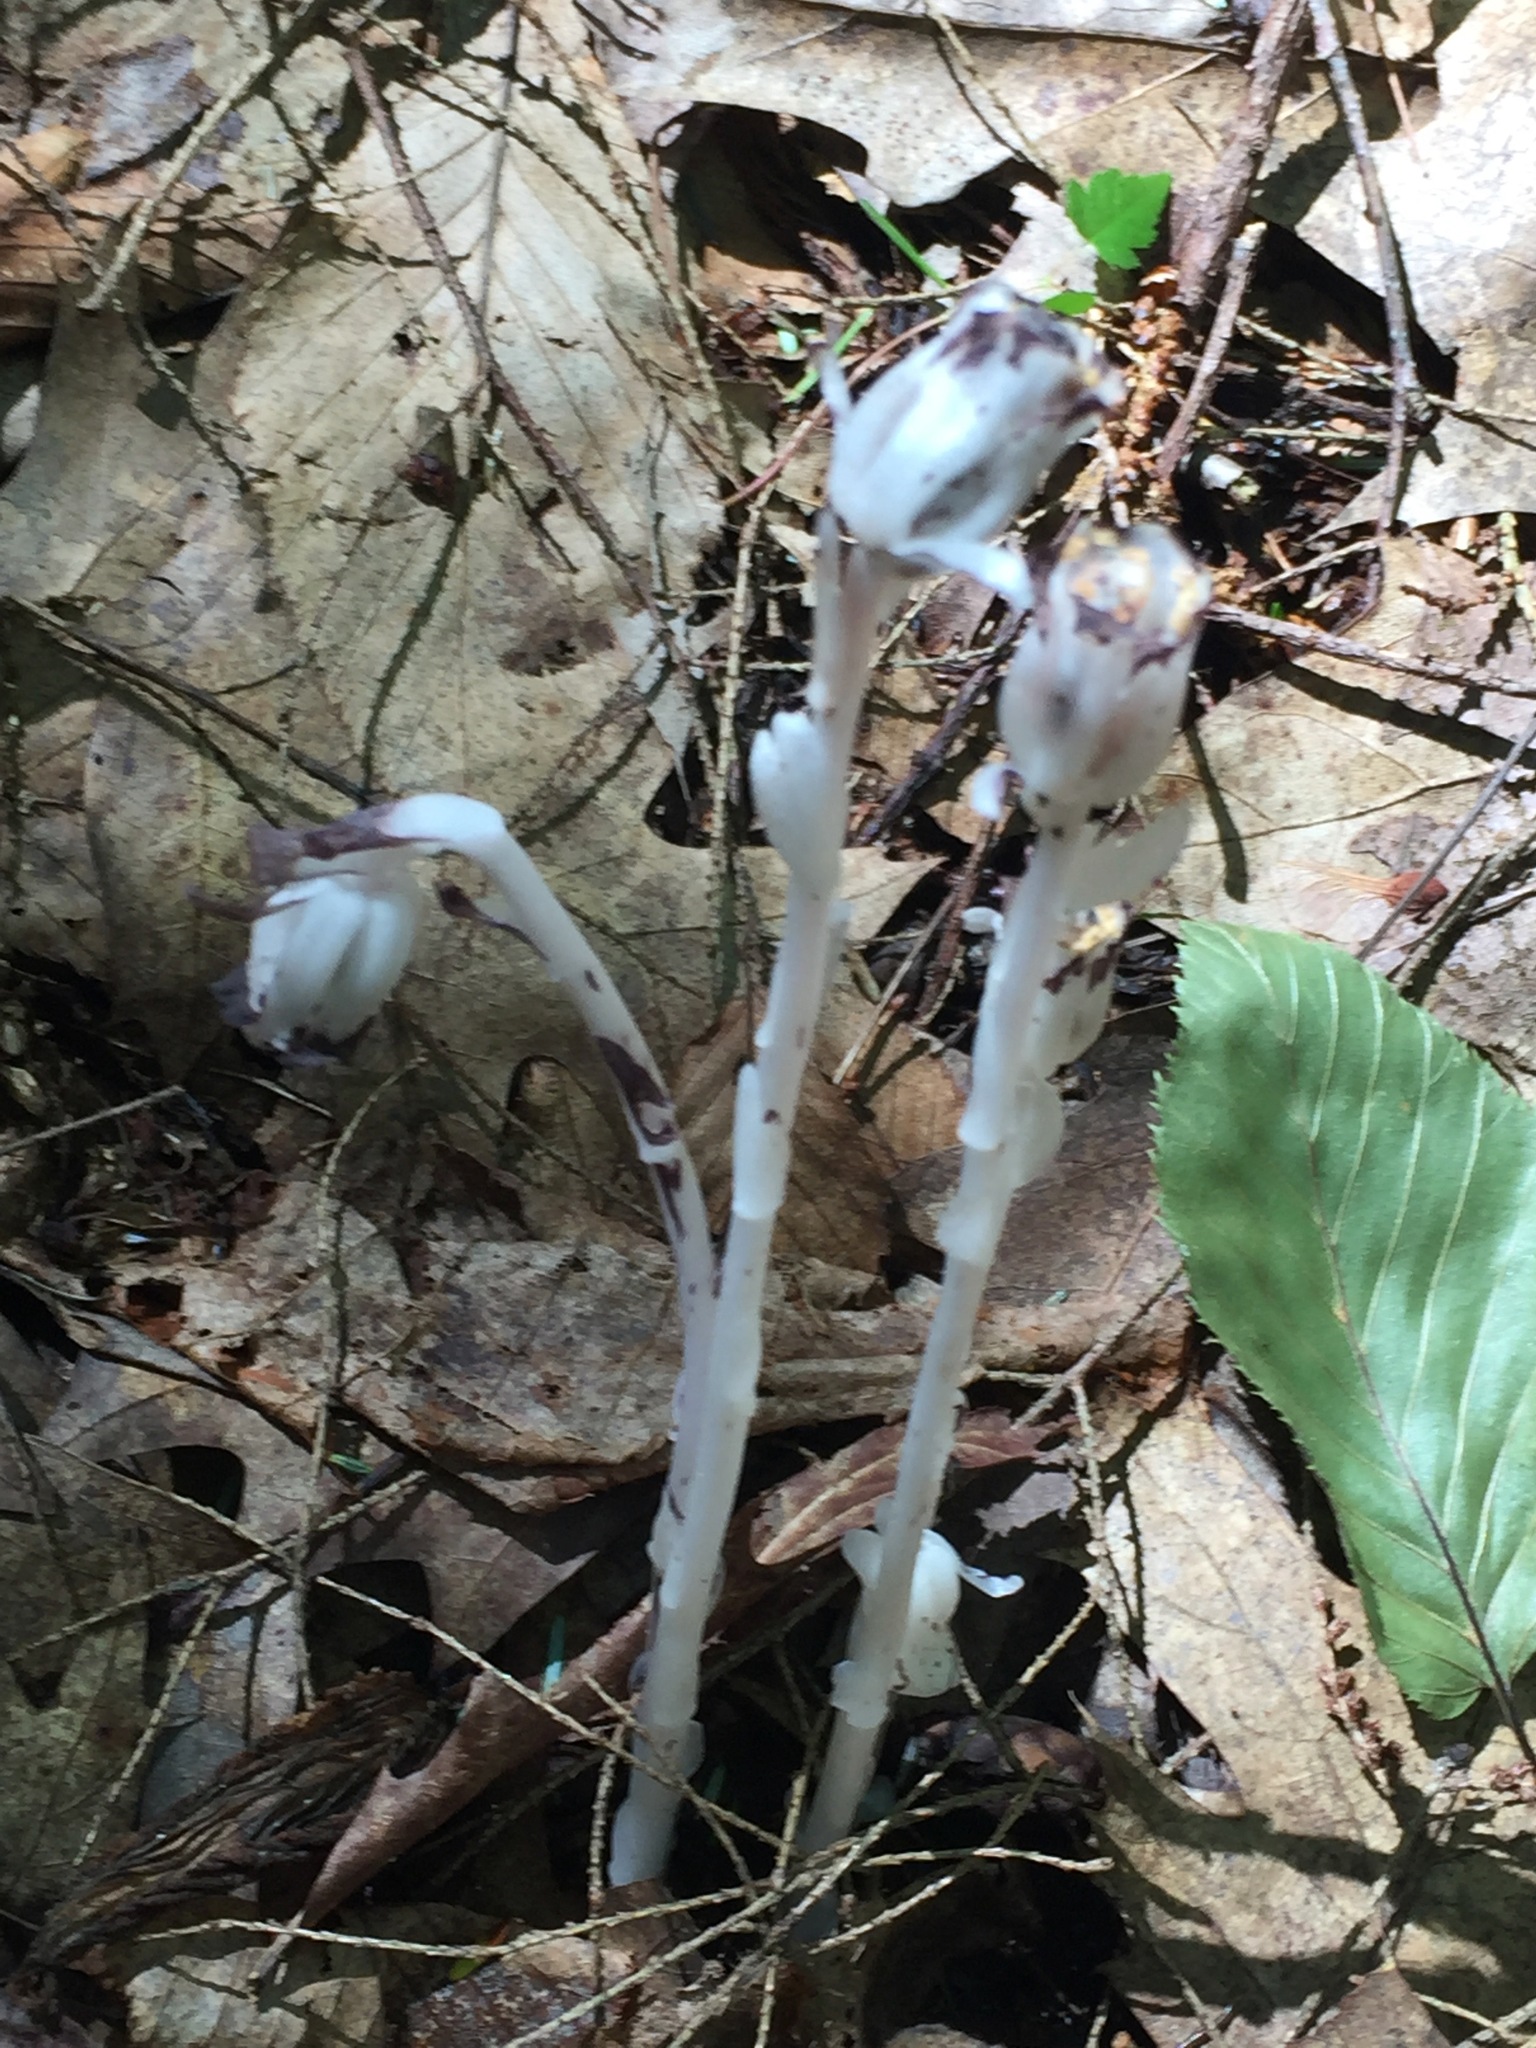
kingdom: Plantae
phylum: Tracheophyta
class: Magnoliopsida
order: Ericales
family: Ericaceae
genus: Monotropa
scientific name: Monotropa uniflora
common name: Convulsion root
